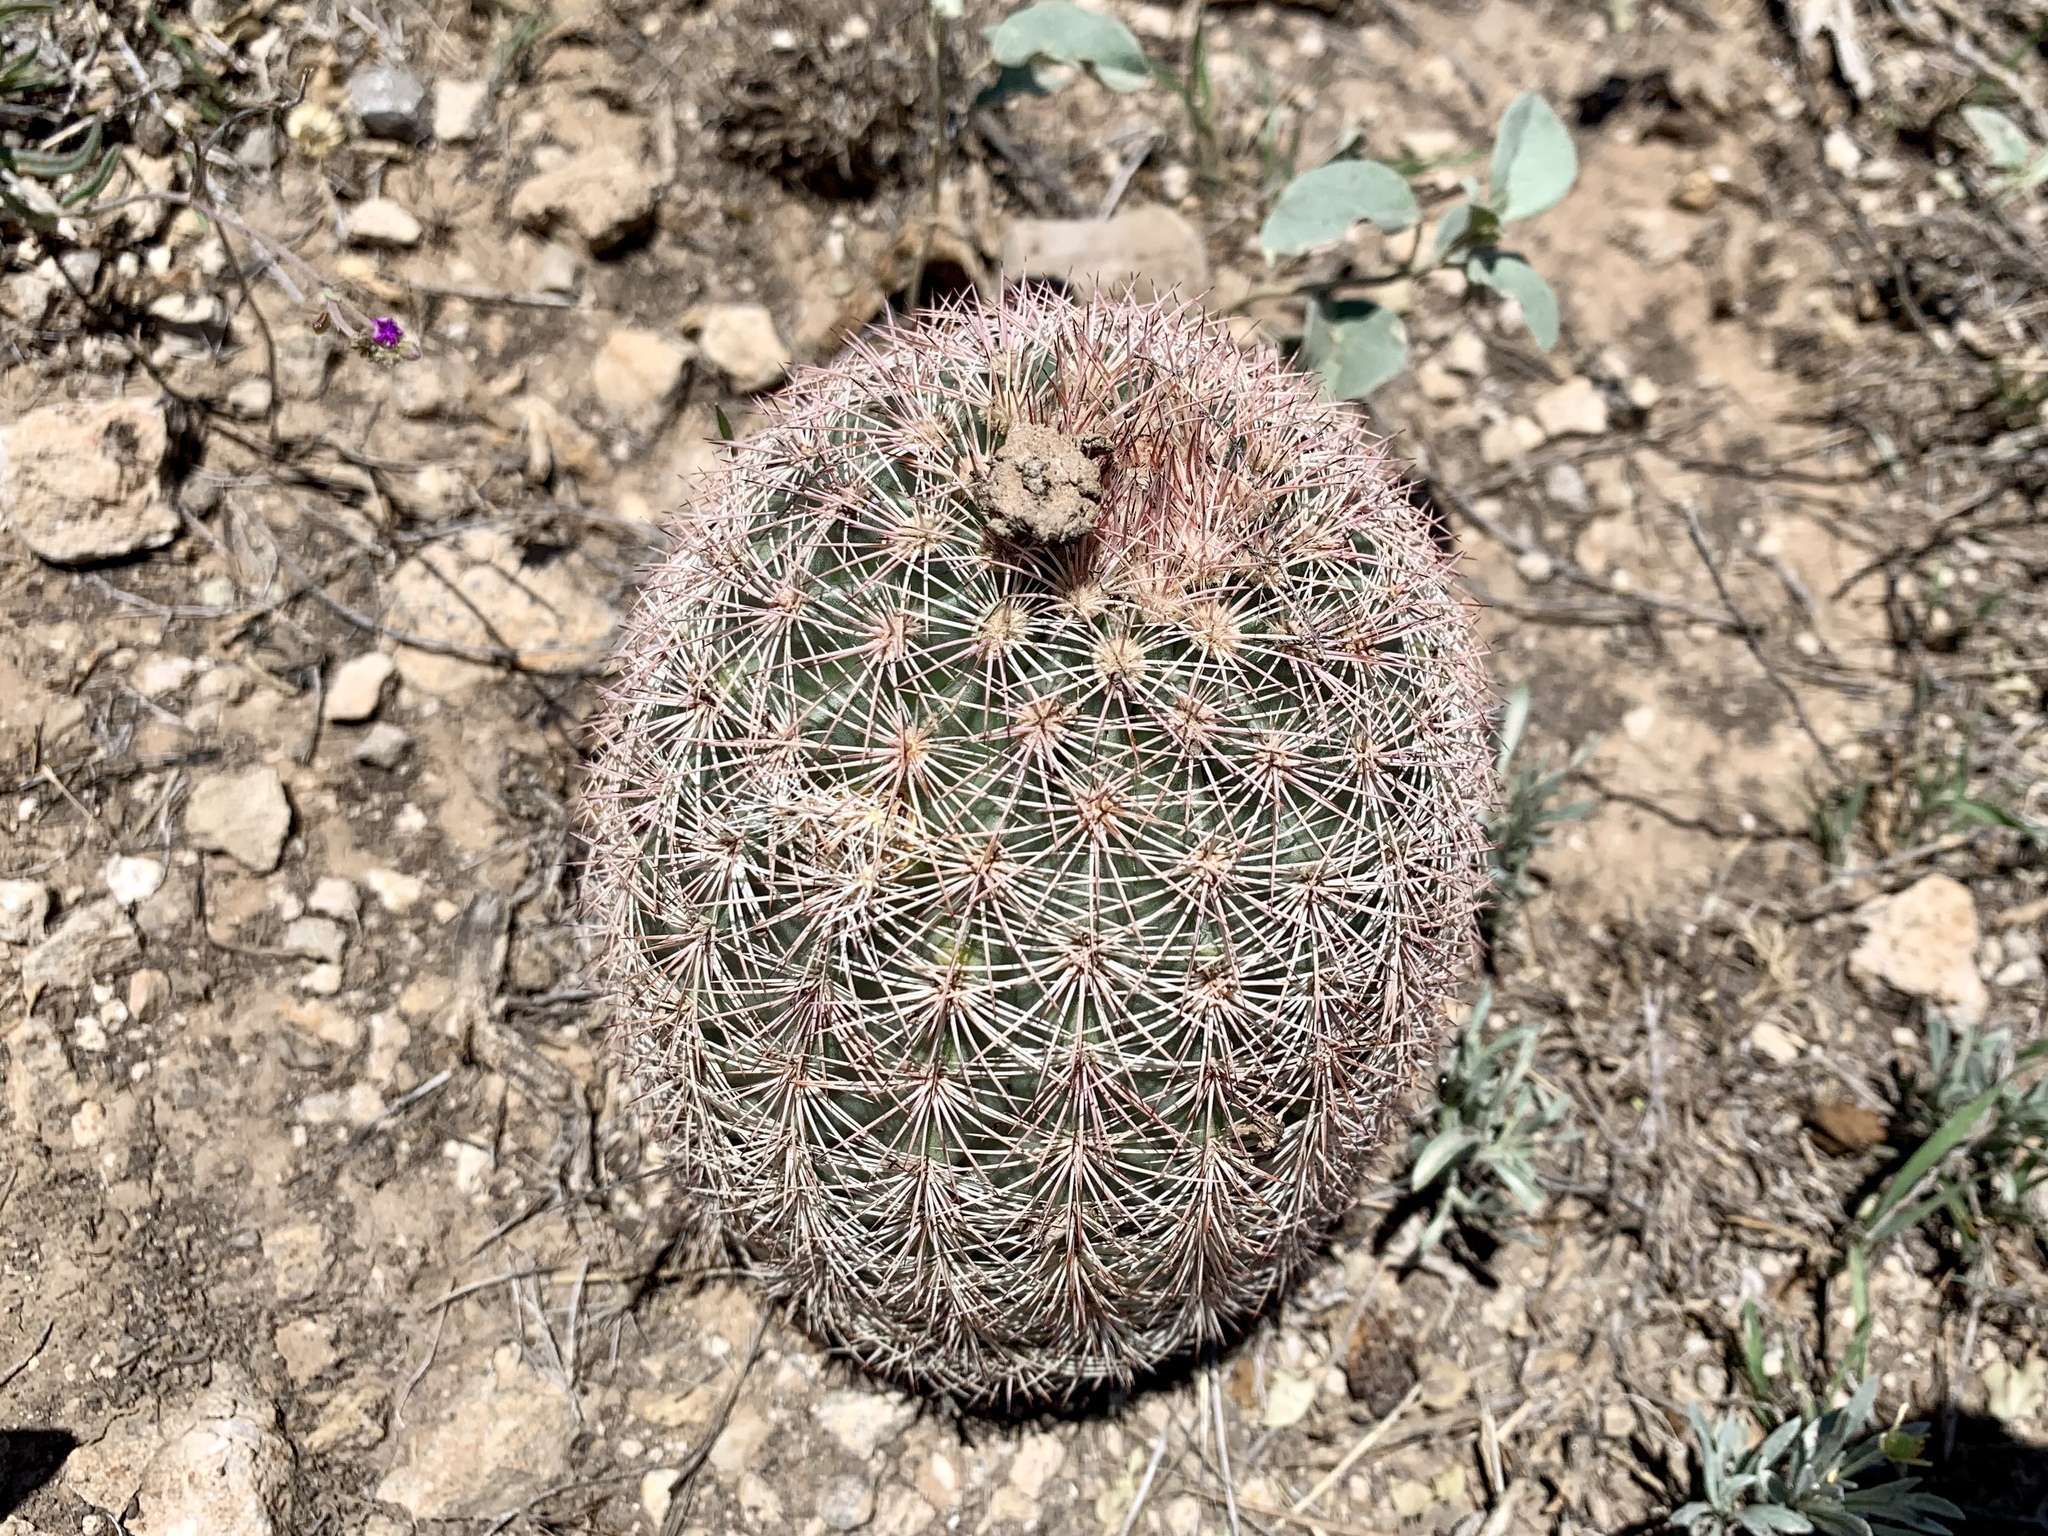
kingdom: Plantae
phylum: Tracheophyta
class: Magnoliopsida
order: Caryophyllales
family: Cactaceae
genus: Echinocereus
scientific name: Echinocereus dasyacanthus
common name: Spiny hedgehog cactus
